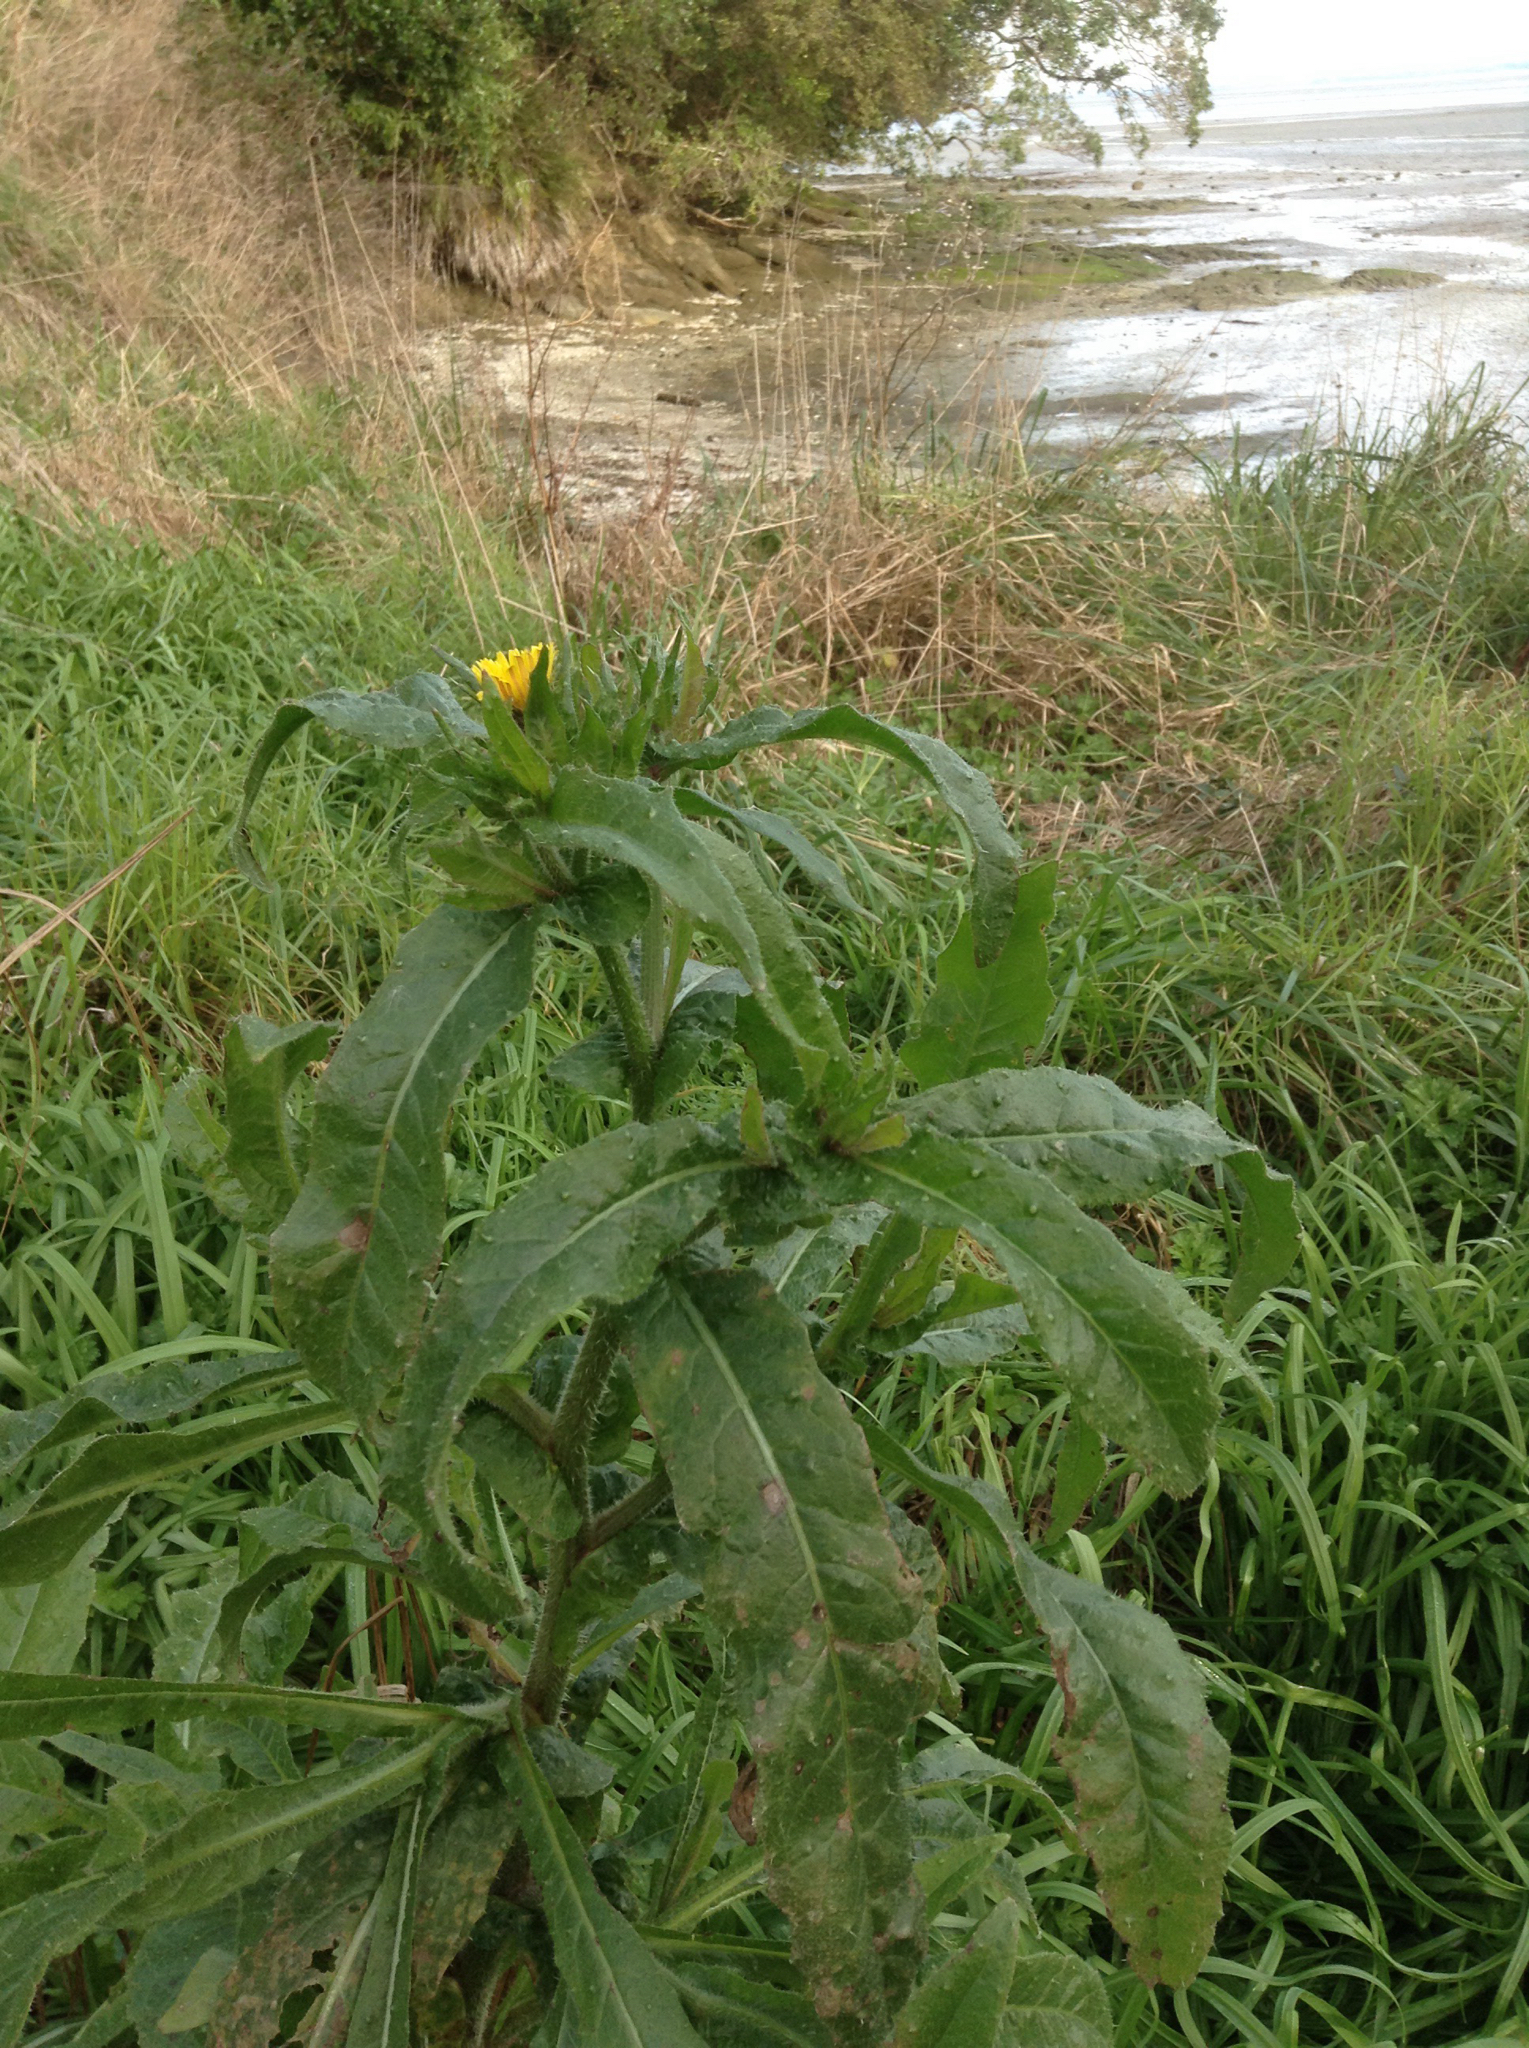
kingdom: Plantae
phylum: Tracheophyta
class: Magnoliopsida
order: Asterales
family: Asteraceae
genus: Helminthotheca
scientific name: Helminthotheca echioides
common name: Ox-tongue
